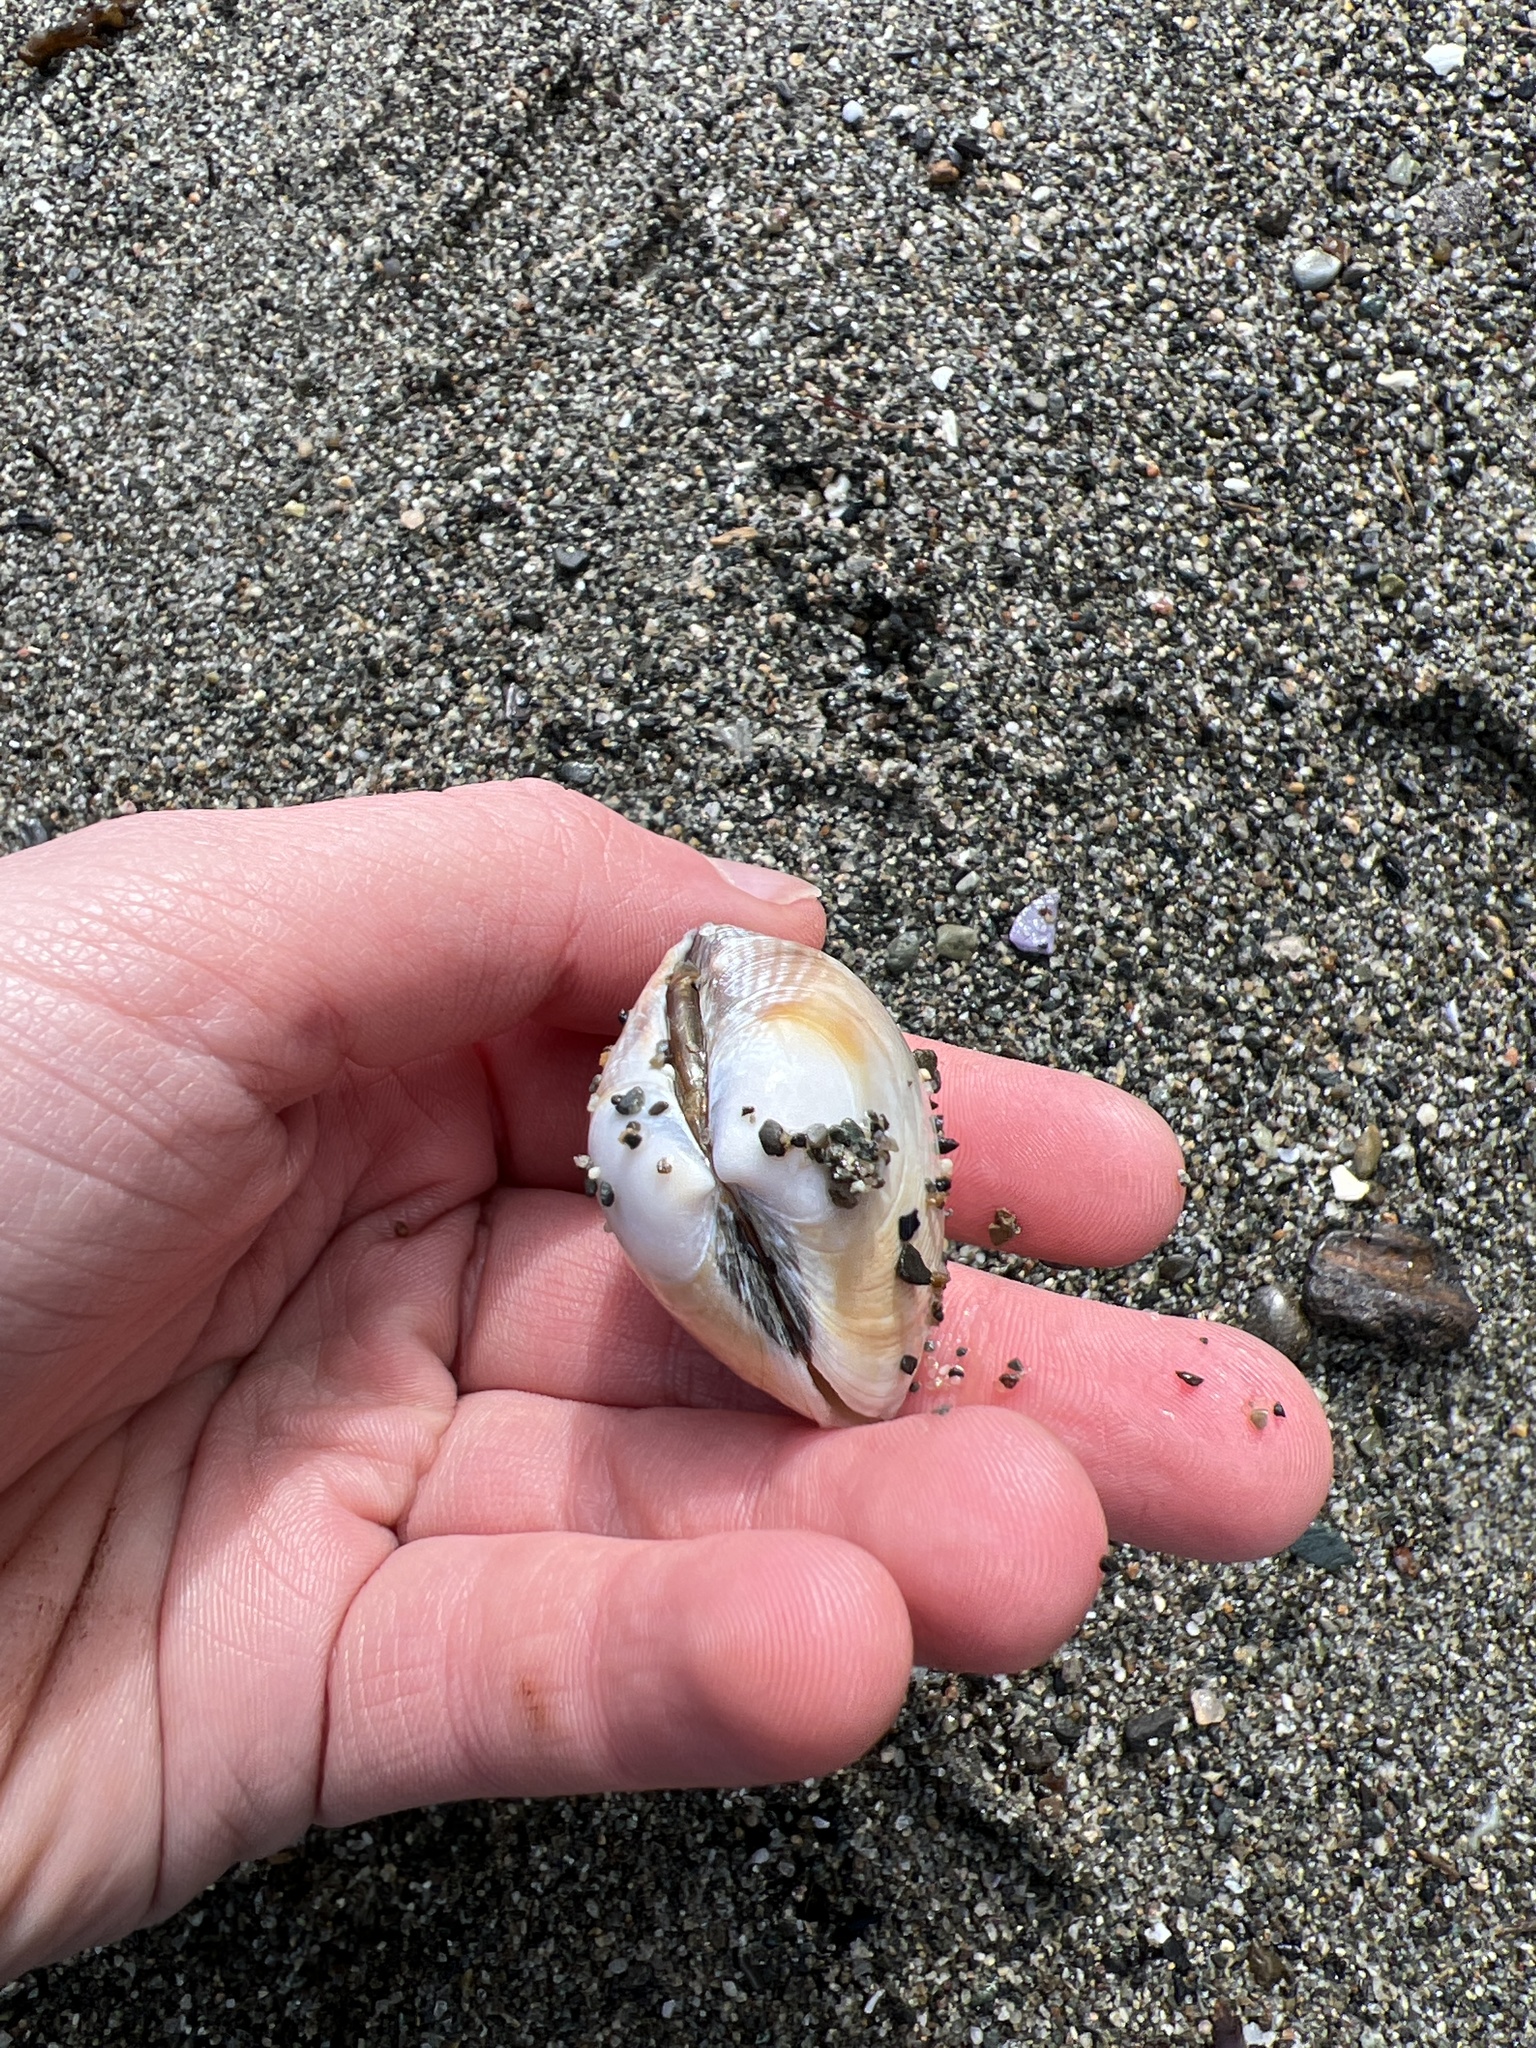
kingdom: Animalia
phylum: Mollusca
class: Bivalvia
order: Venerida
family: Veneridae
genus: Ruditapes
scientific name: Ruditapes philippinarum
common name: Manila clam
